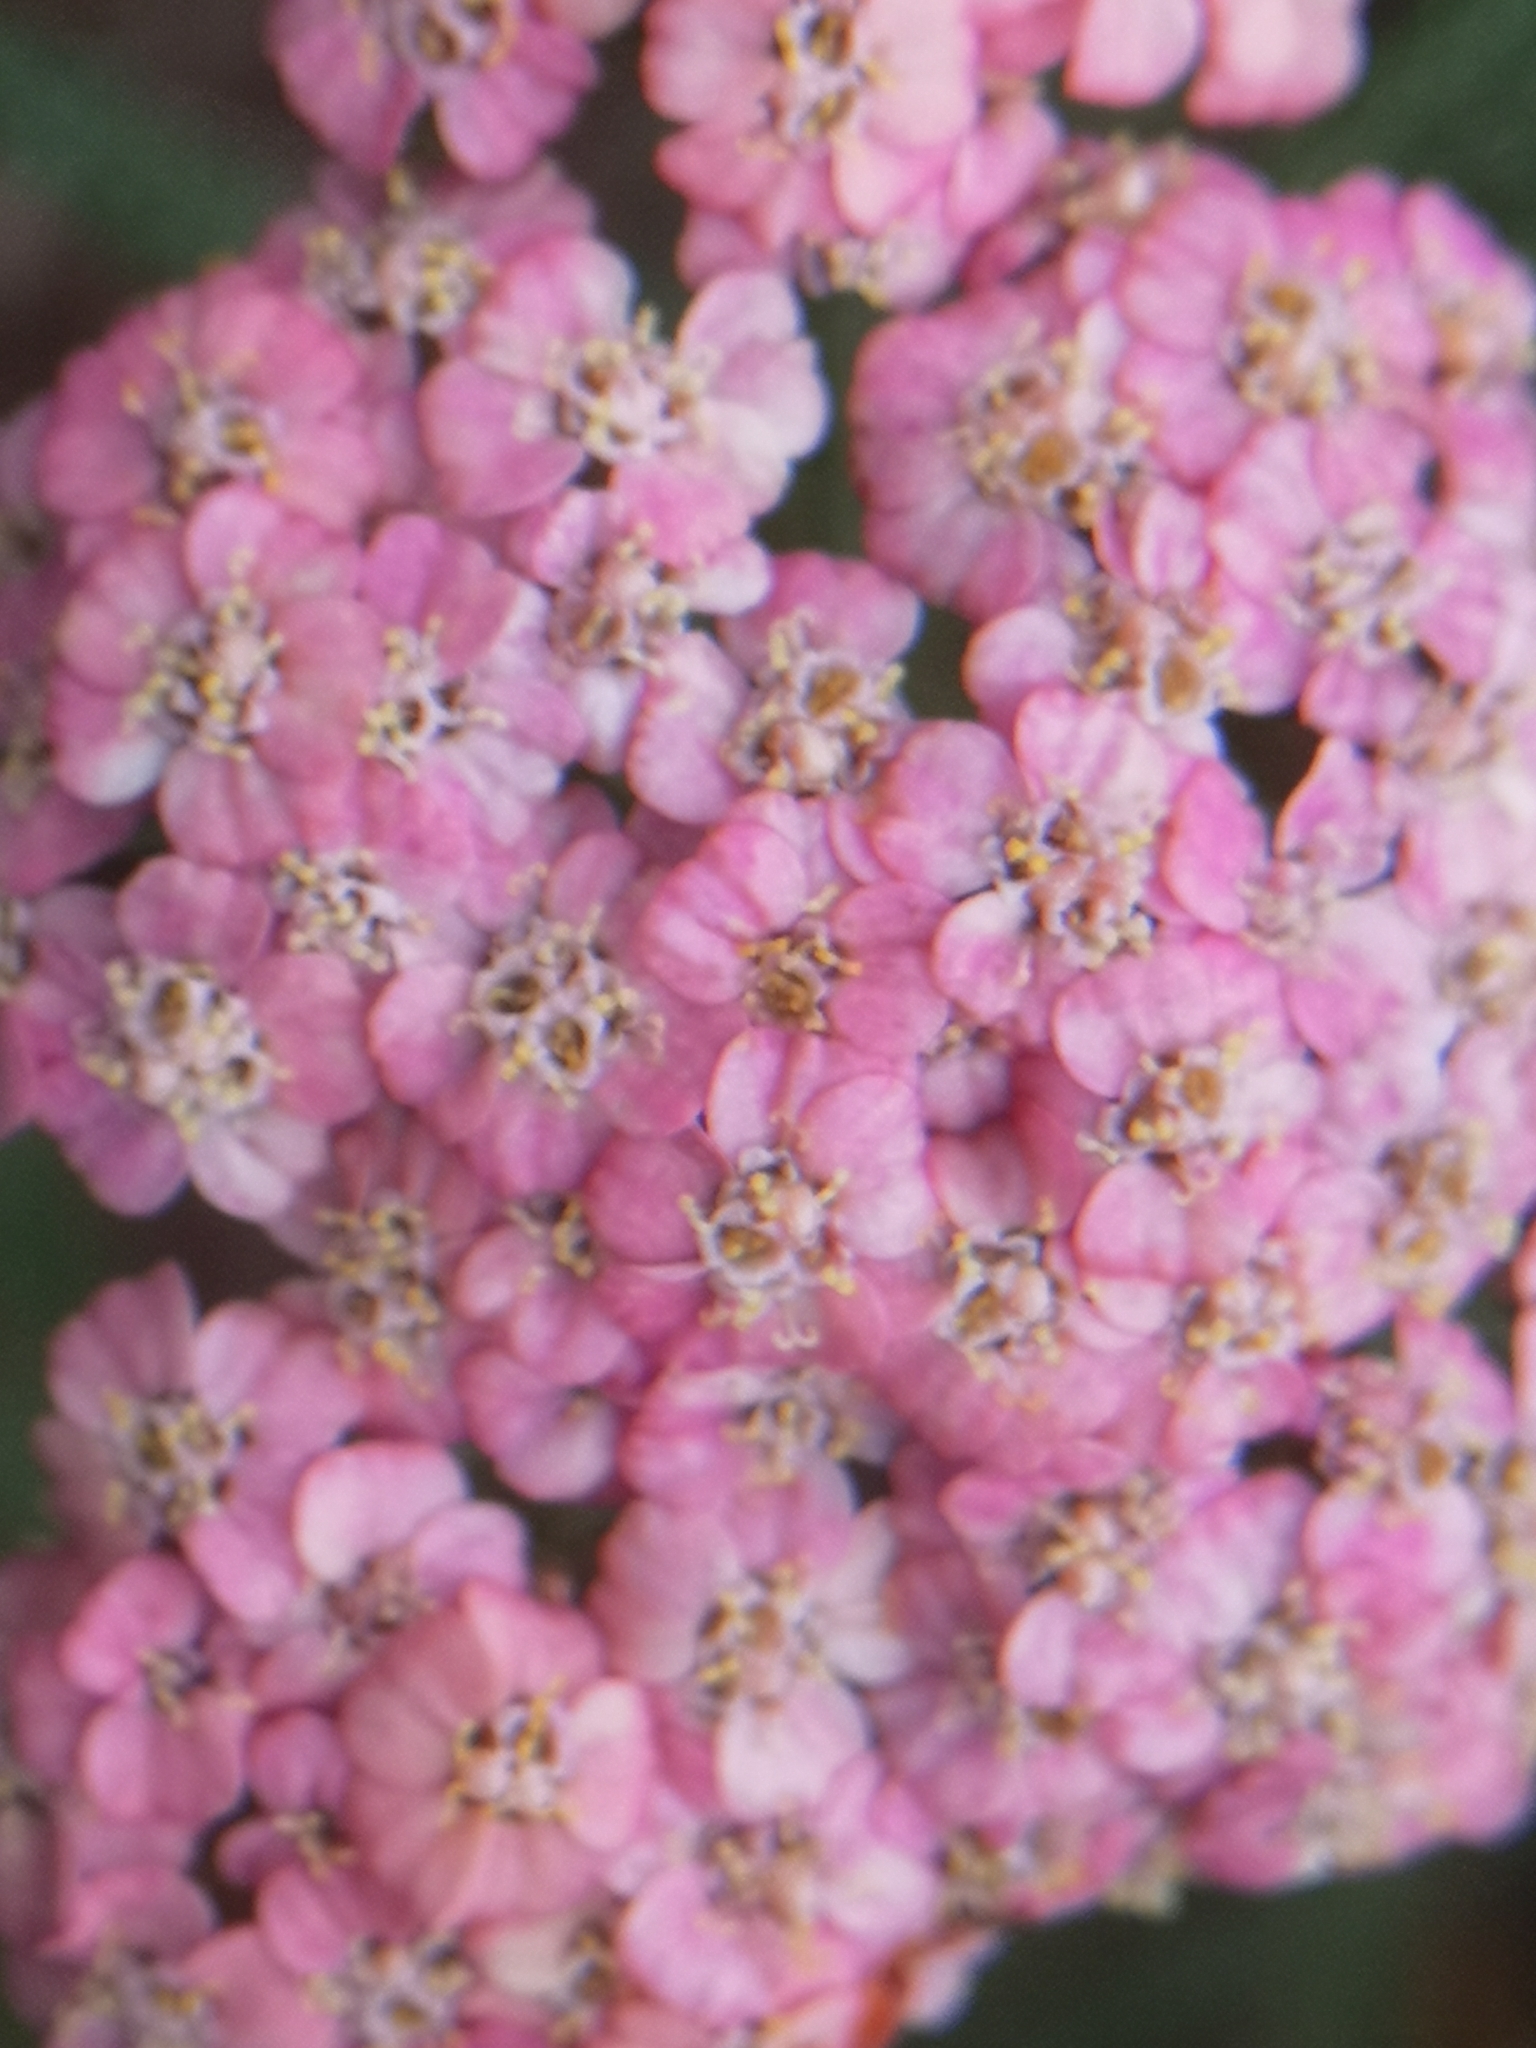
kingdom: Plantae
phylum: Tracheophyta
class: Magnoliopsida
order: Asterales
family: Asteraceae
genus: Achillea
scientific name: Achillea millefolium
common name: Yarrow
